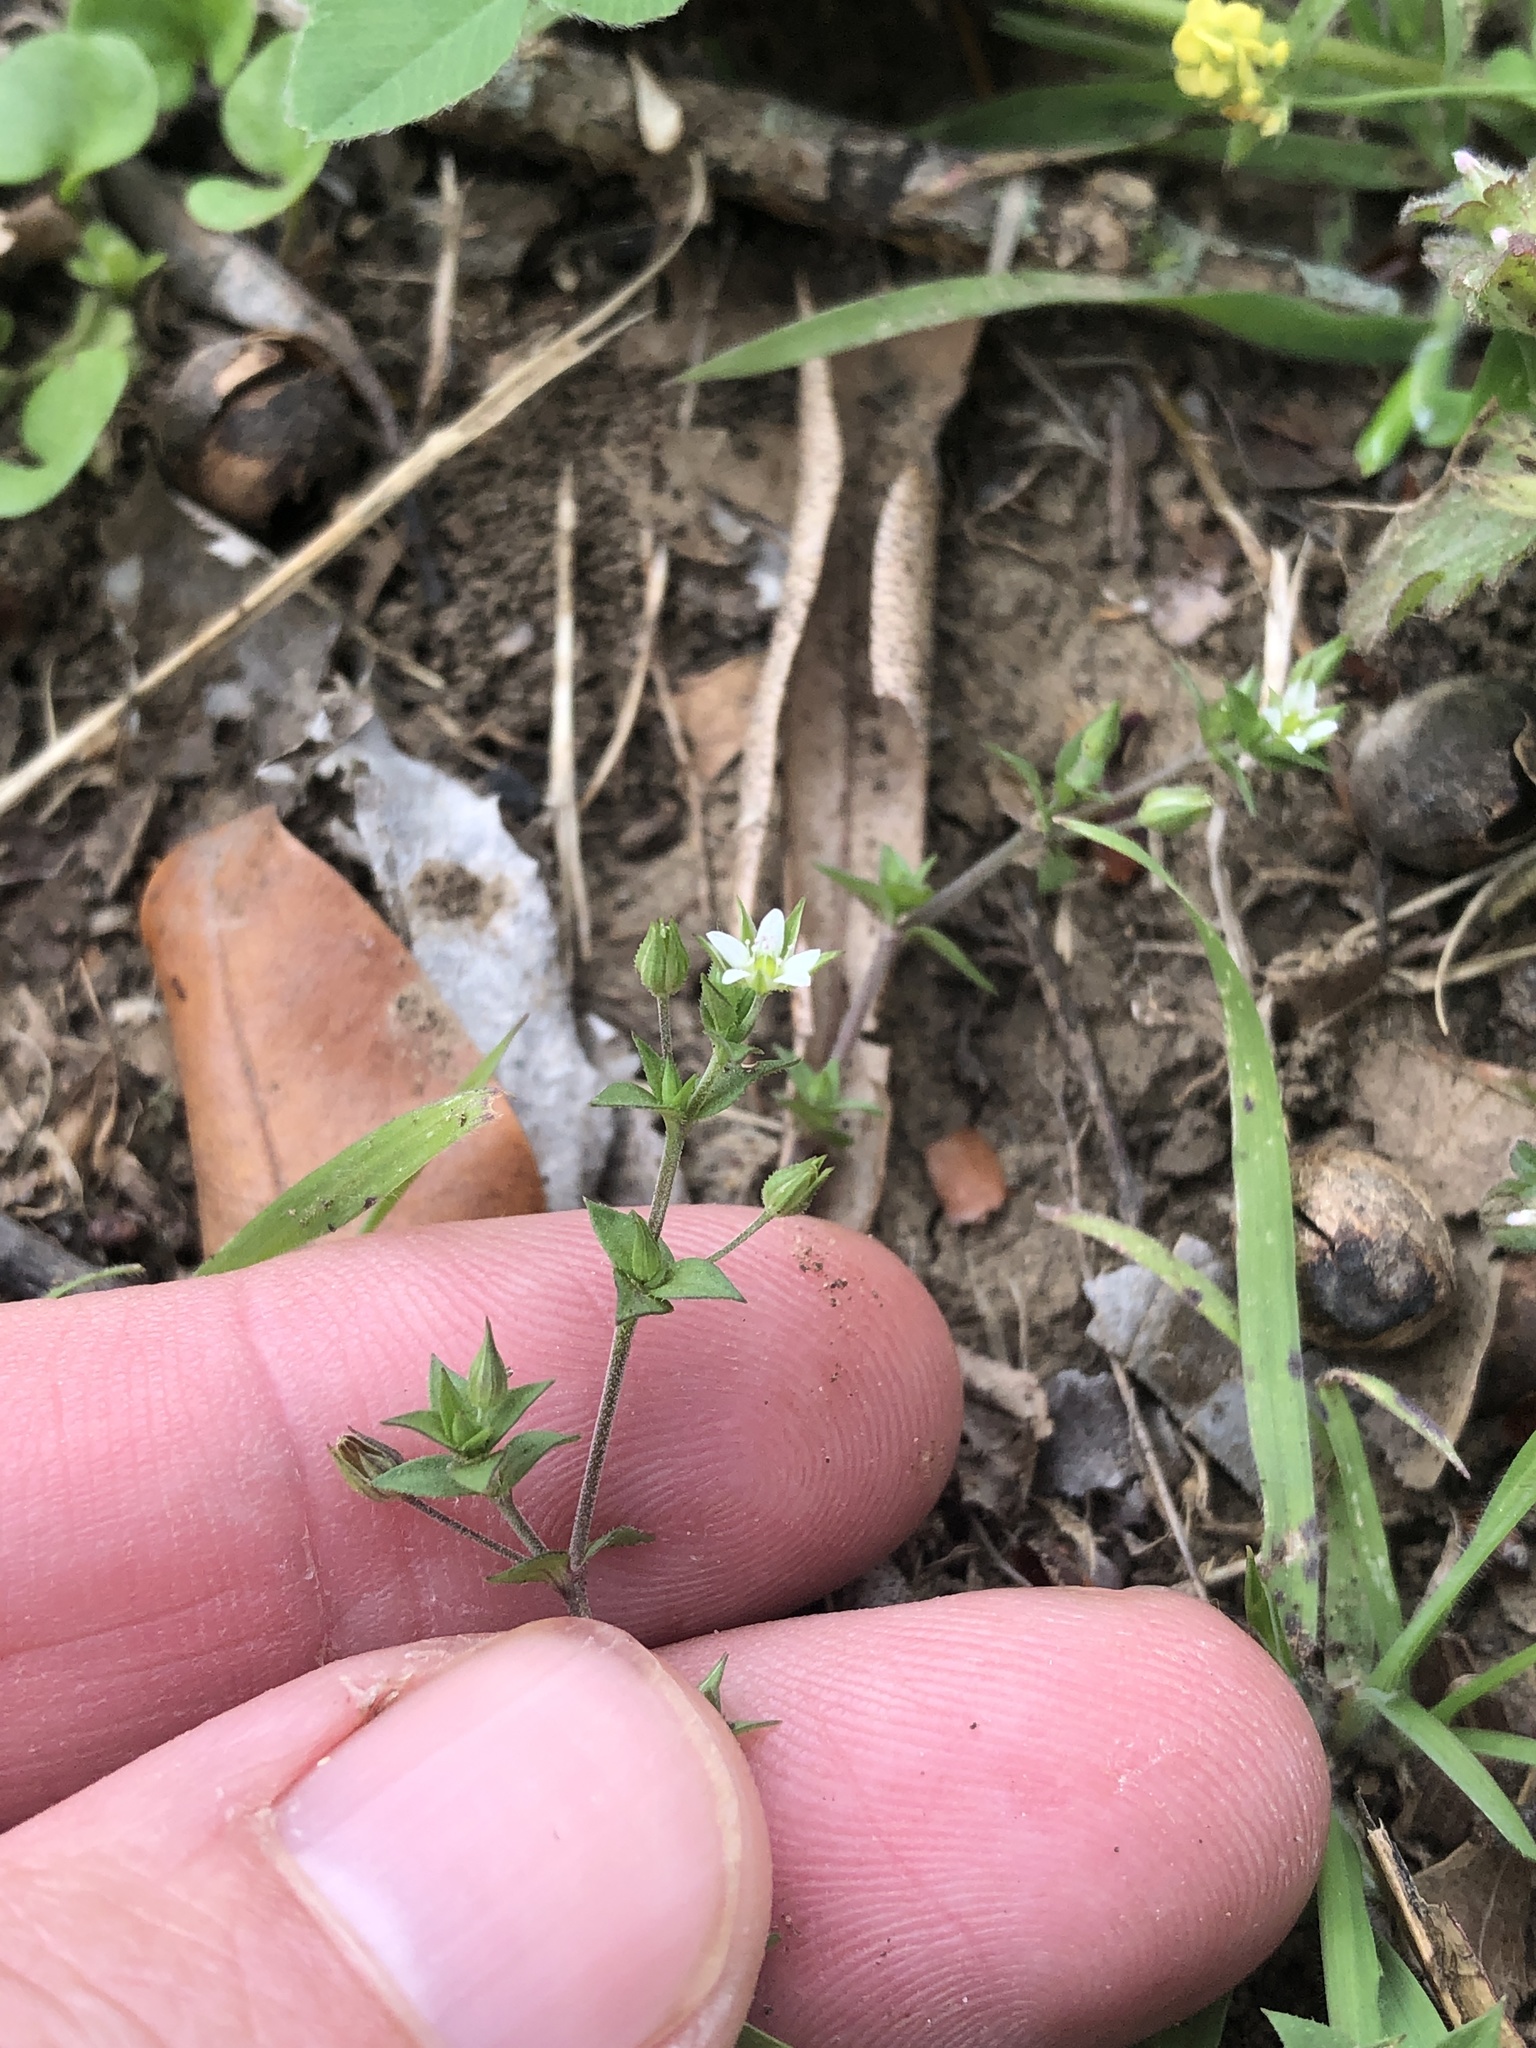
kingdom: Plantae
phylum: Tracheophyta
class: Magnoliopsida
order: Caryophyllales
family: Caryophyllaceae
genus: Arenaria
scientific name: Arenaria serpyllifolia
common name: Thyme-leaved sandwort
